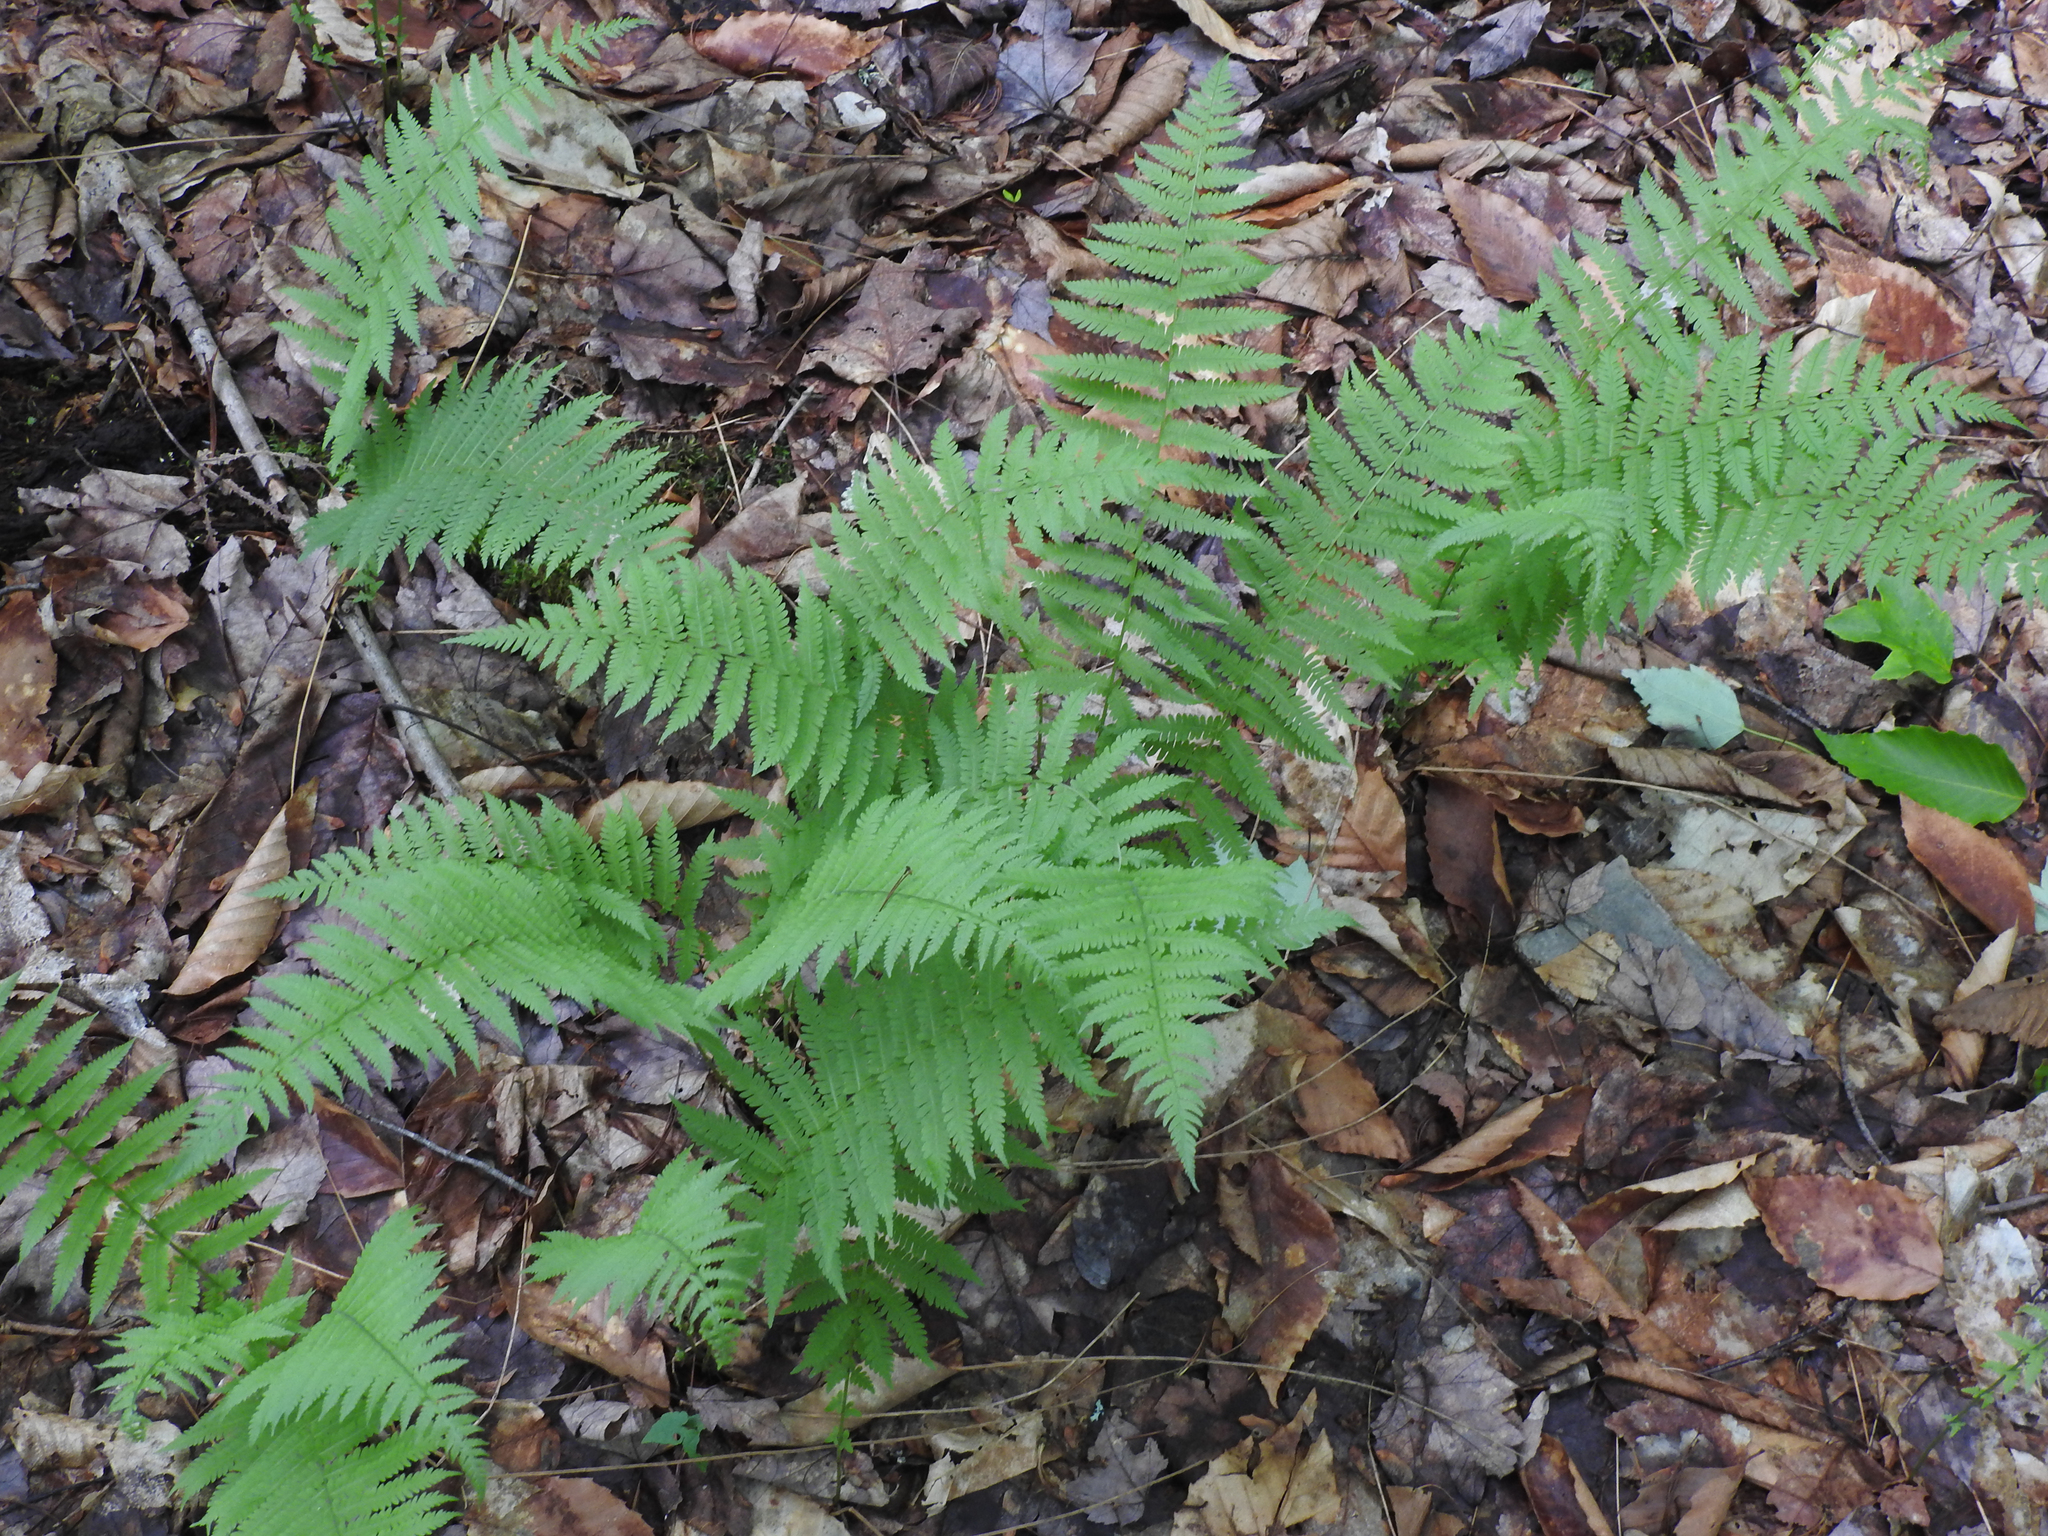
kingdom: Plantae
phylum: Tracheophyta
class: Polypodiopsida
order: Polypodiales
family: Thelypteridaceae
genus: Amauropelta
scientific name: Amauropelta noveboracensis
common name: New york fern
